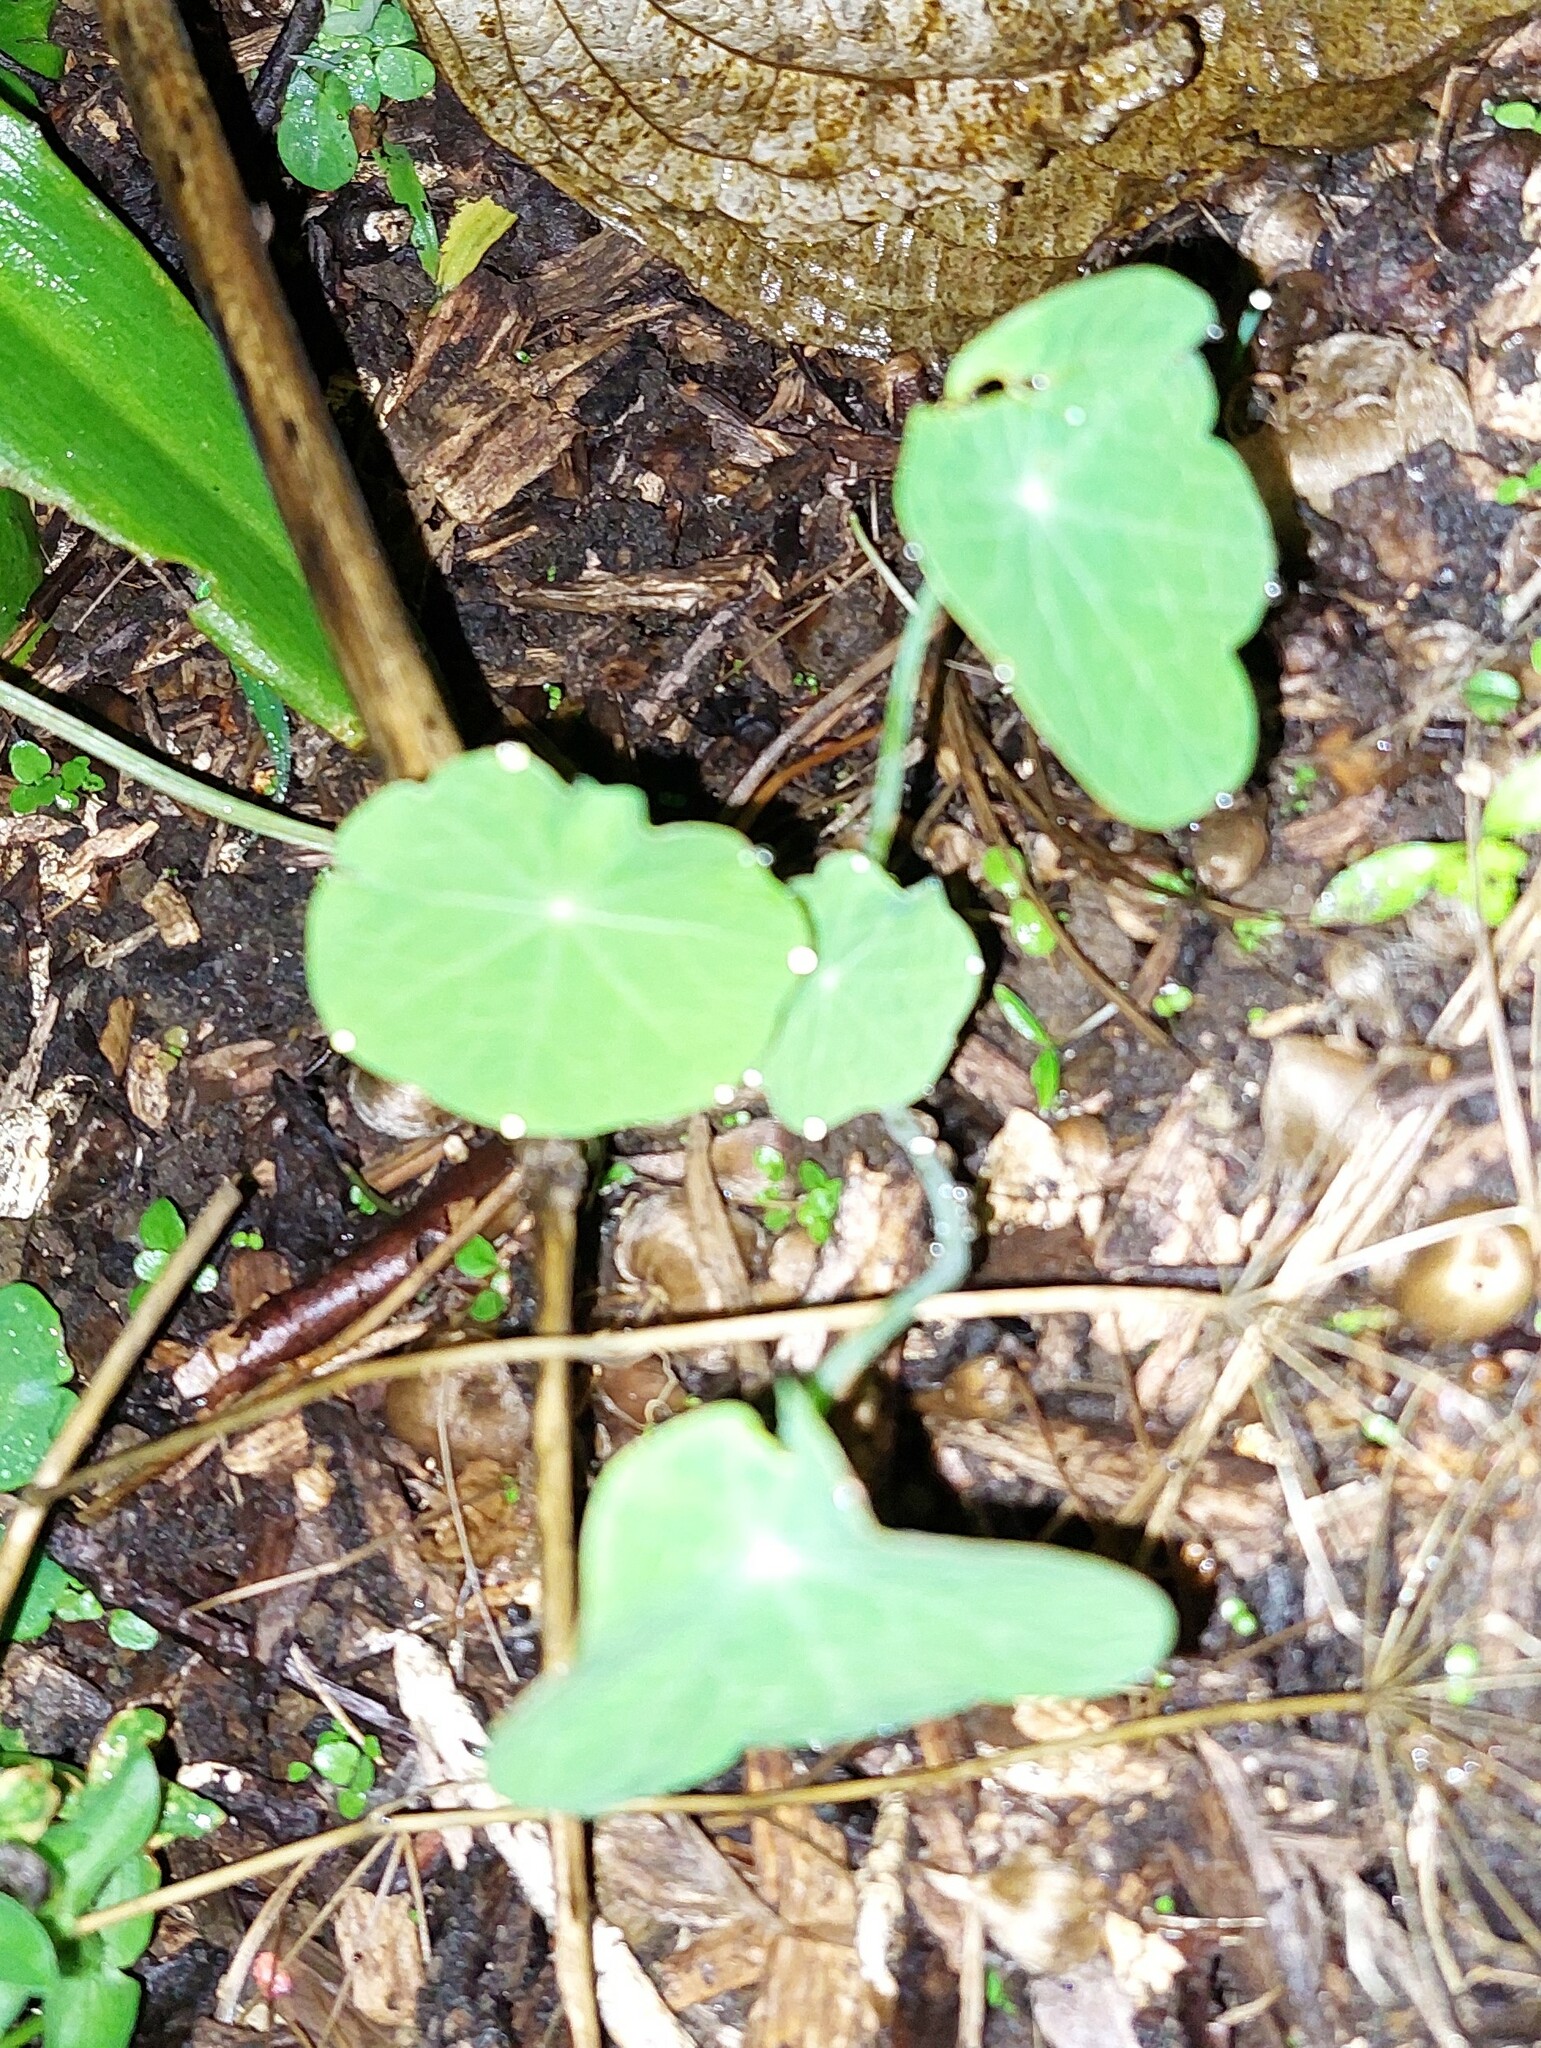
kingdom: Plantae
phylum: Tracheophyta
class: Magnoliopsida
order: Brassicales
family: Tropaeolaceae
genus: Tropaeolum
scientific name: Tropaeolum majus
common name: Nasturtium
